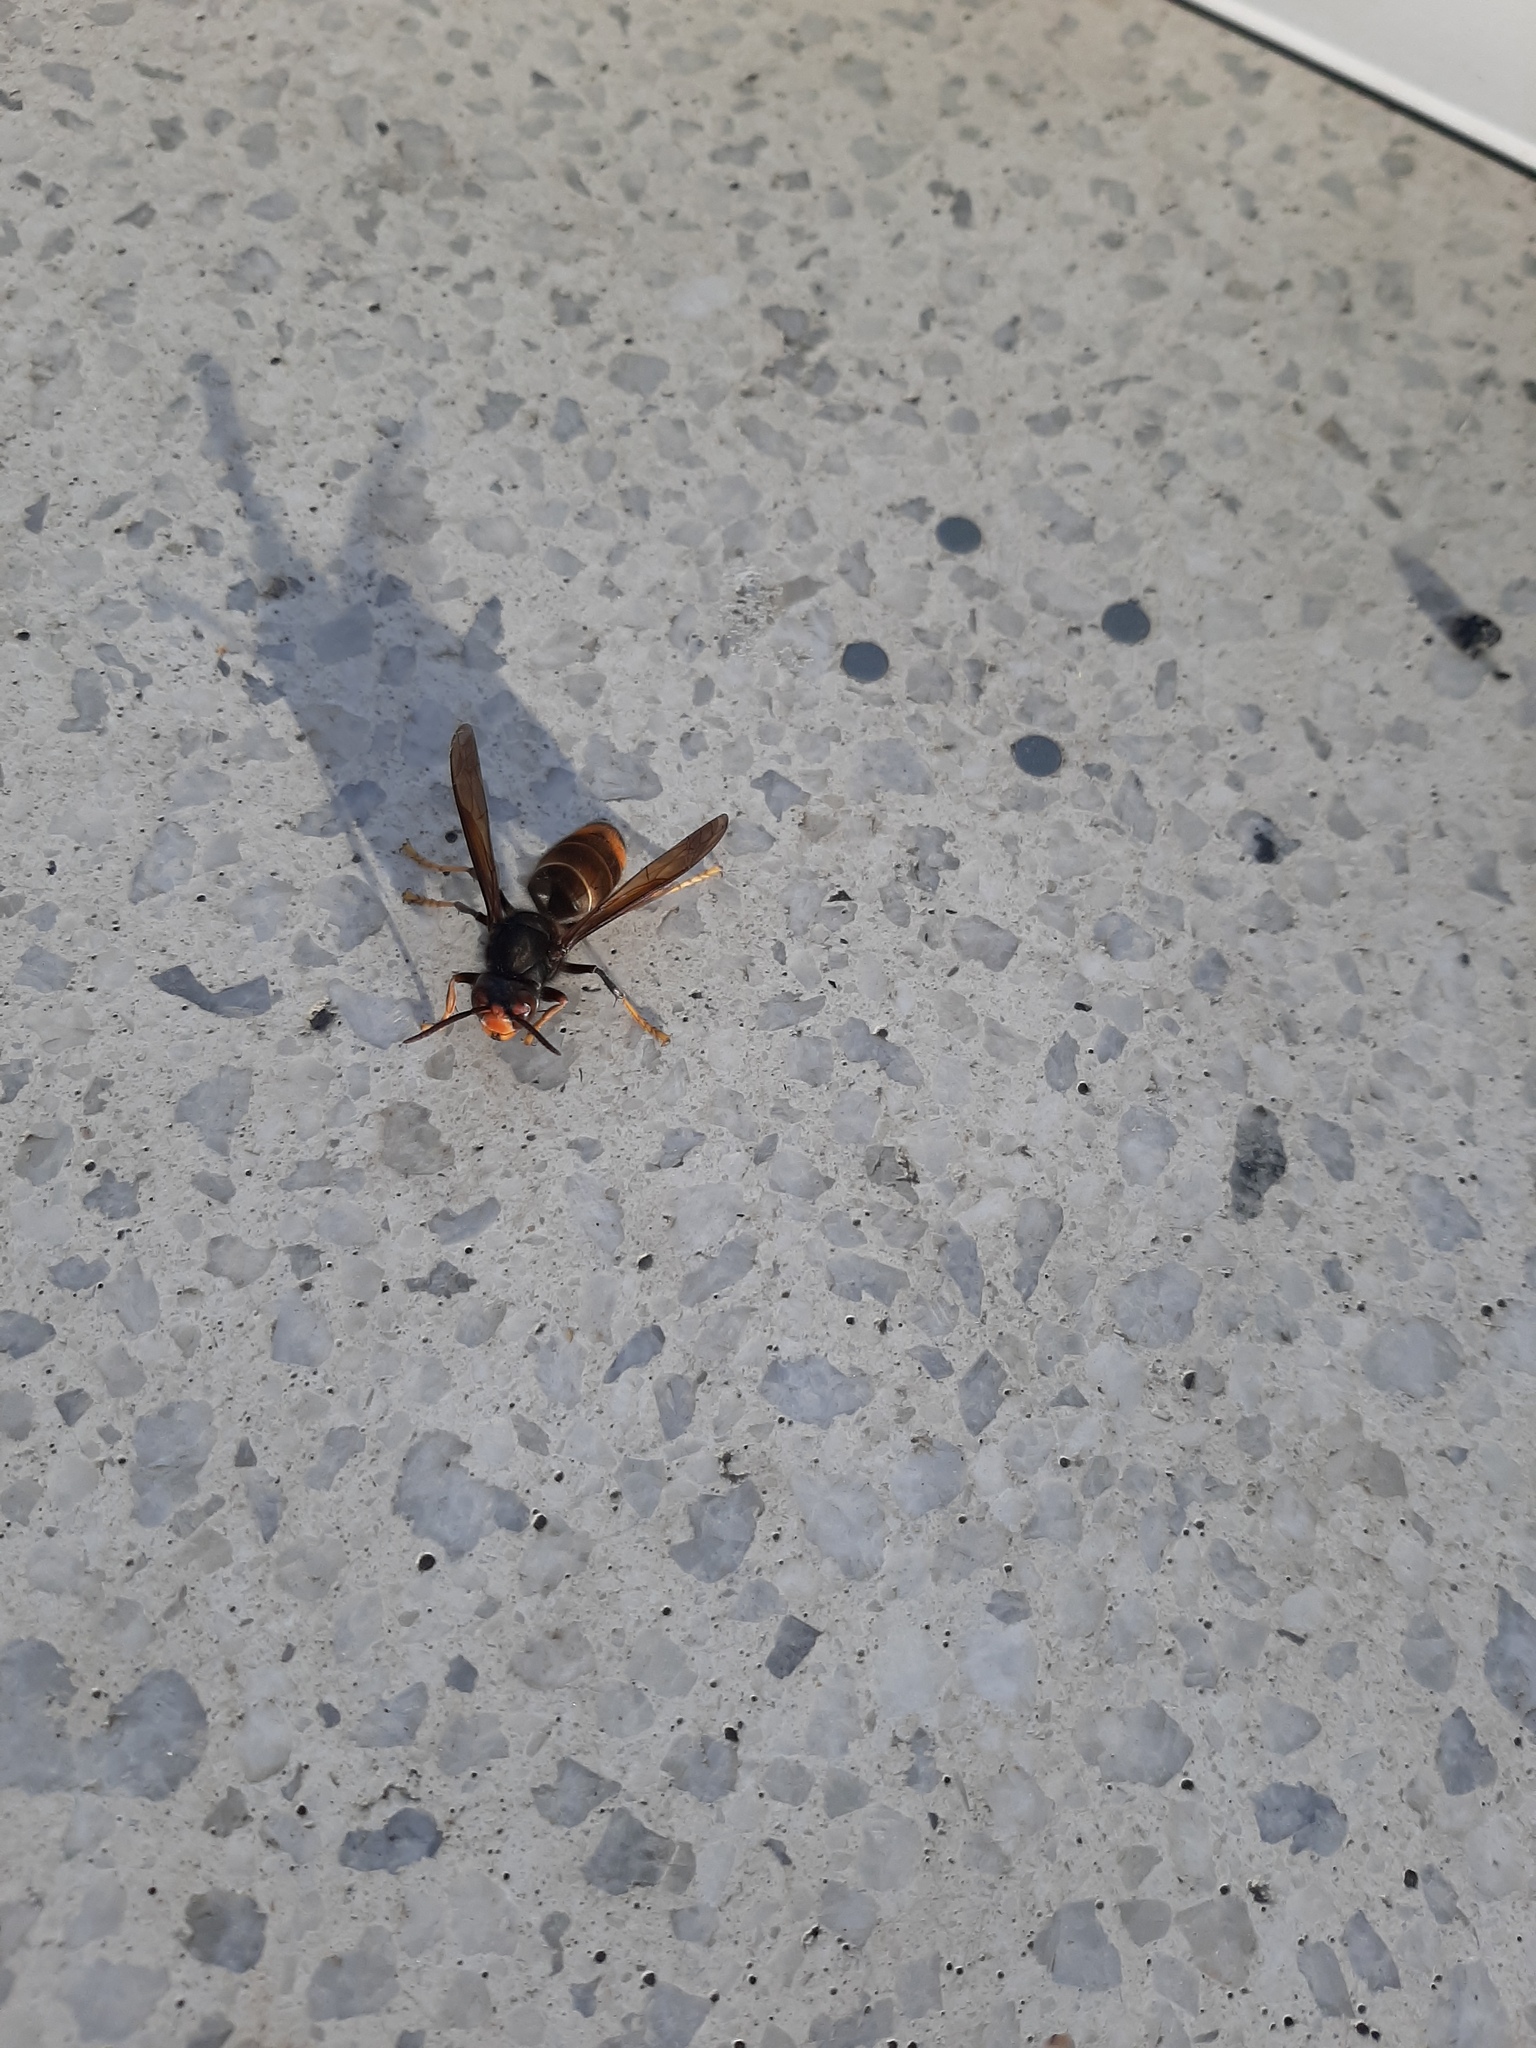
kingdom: Animalia
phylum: Arthropoda
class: Insecta
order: Hymenoptera
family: Vespidae
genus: Vespa
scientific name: Vespa velutina
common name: Asian hornet
